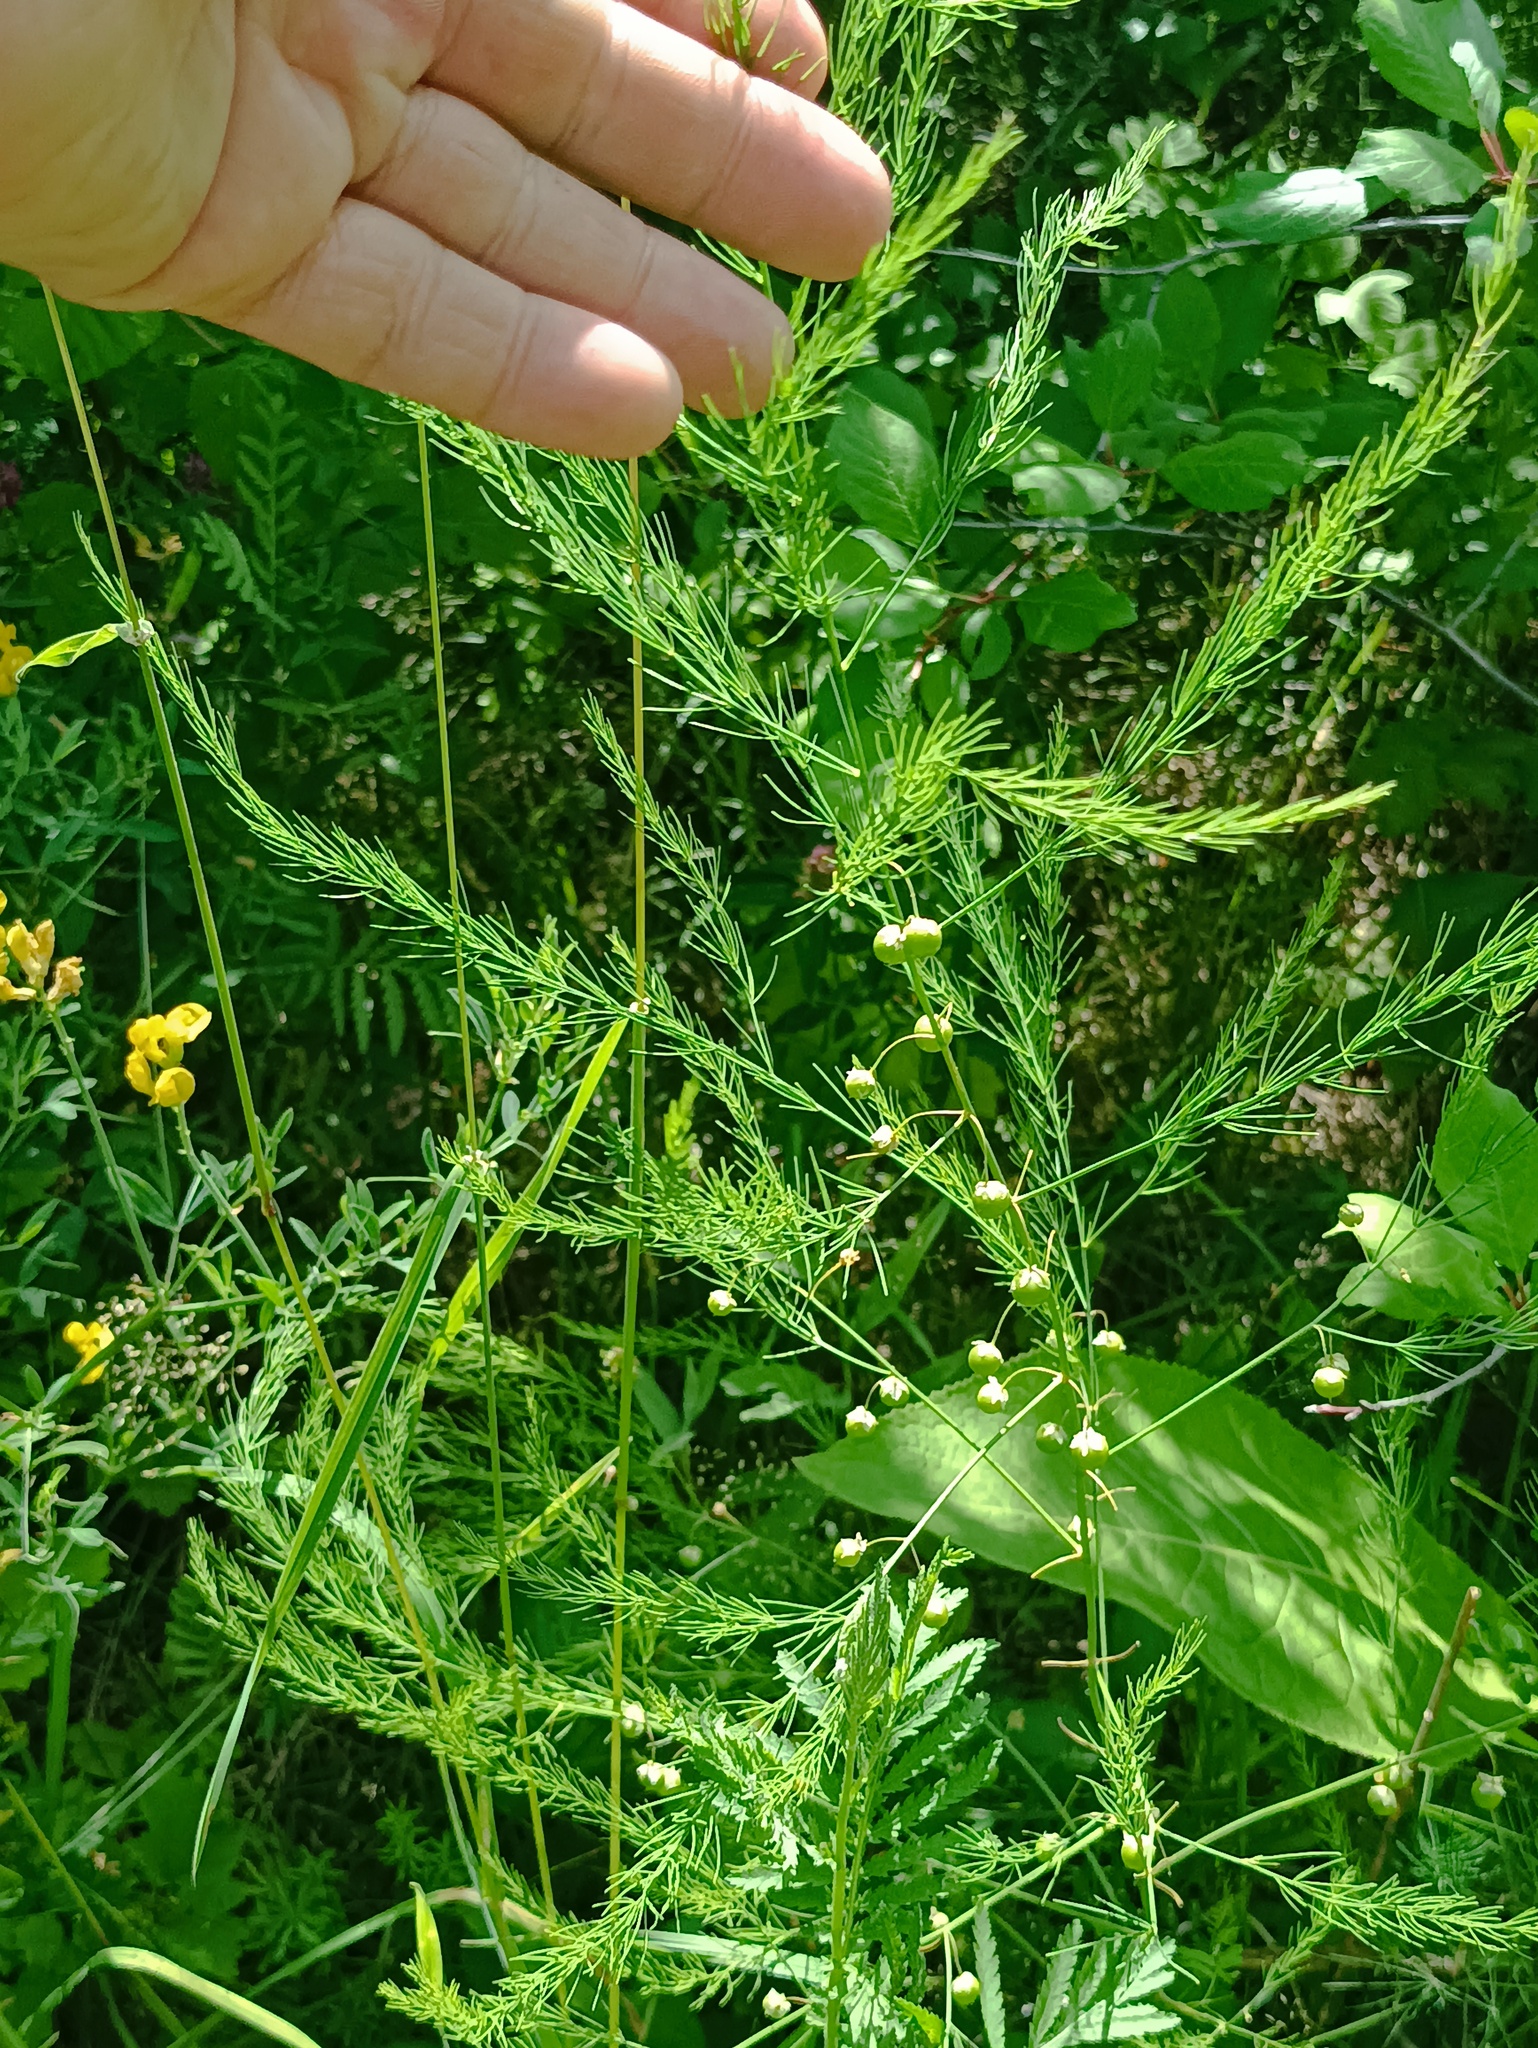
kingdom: Plantae
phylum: Tracheophyta
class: Liliopsida
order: Asparagales
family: Asparagaceae
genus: Asparagus
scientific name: Asparagus officinalis
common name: Garden asparagus
